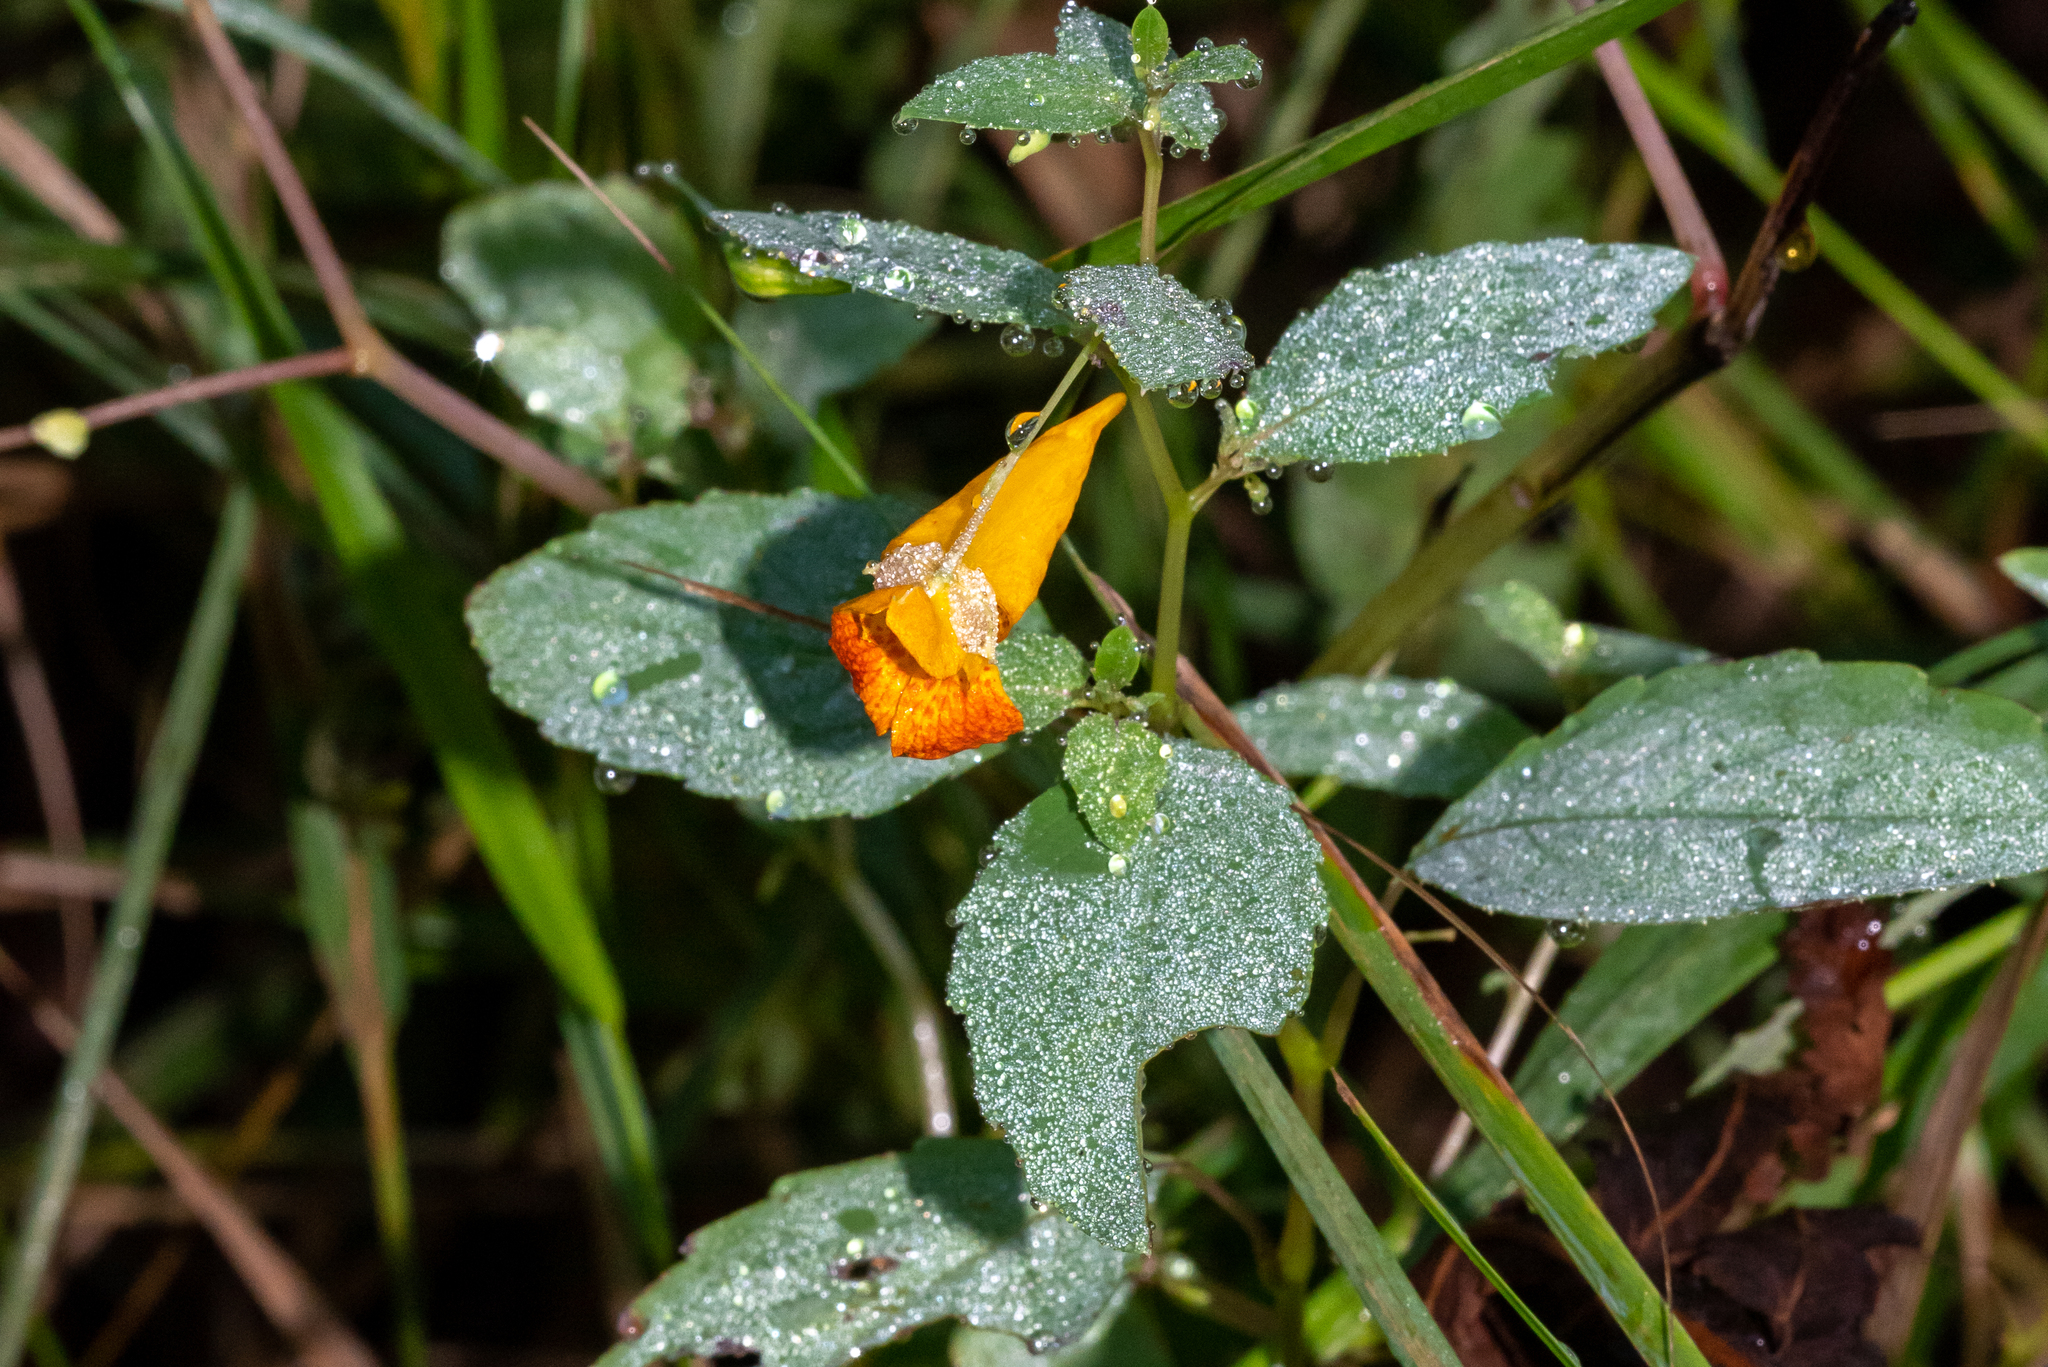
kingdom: Plantae
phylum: Tracheophyta
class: Magnoliopsida
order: Ericales
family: Balsaminaceae
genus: Impatiens
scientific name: Impatiens capensis
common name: Orange balsam
